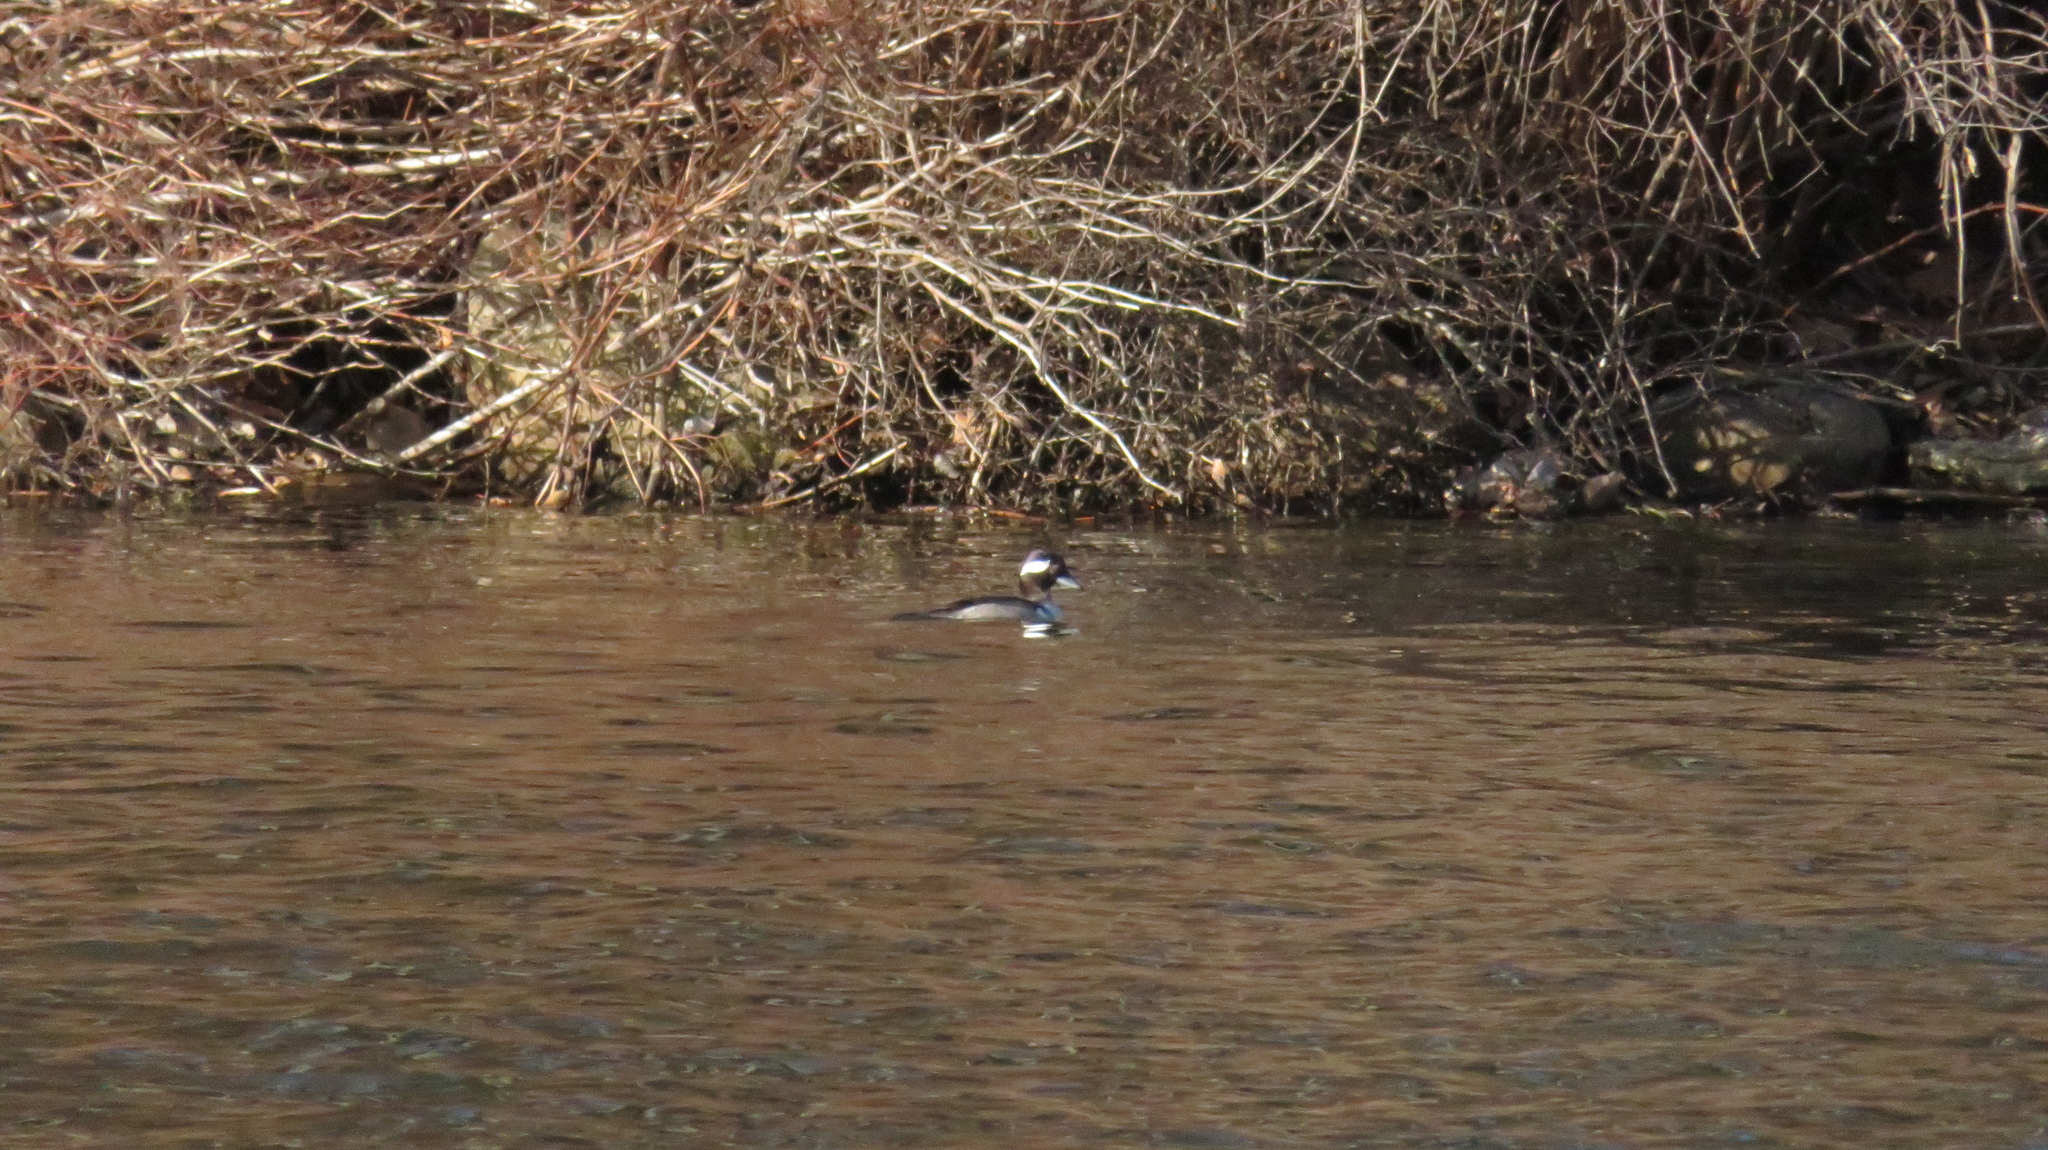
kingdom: Animalia
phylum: Chordata
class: Aves
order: Anseriformes
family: Anatidae
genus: Bucephala
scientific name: Bucephala albeola
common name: Bufflehead
